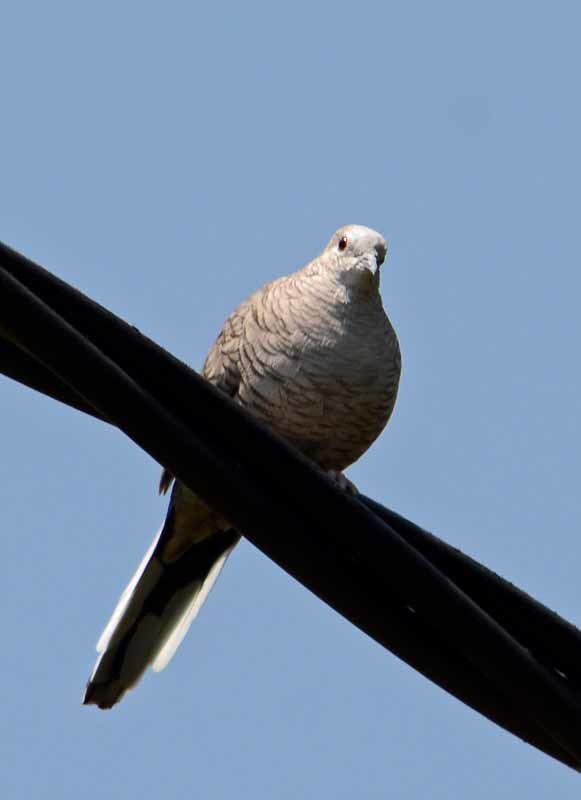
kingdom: Animalia
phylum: Chordata
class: Aves
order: Columbiformes
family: Columbidae
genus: Columbina
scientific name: Columbina inca
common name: Inca dove
